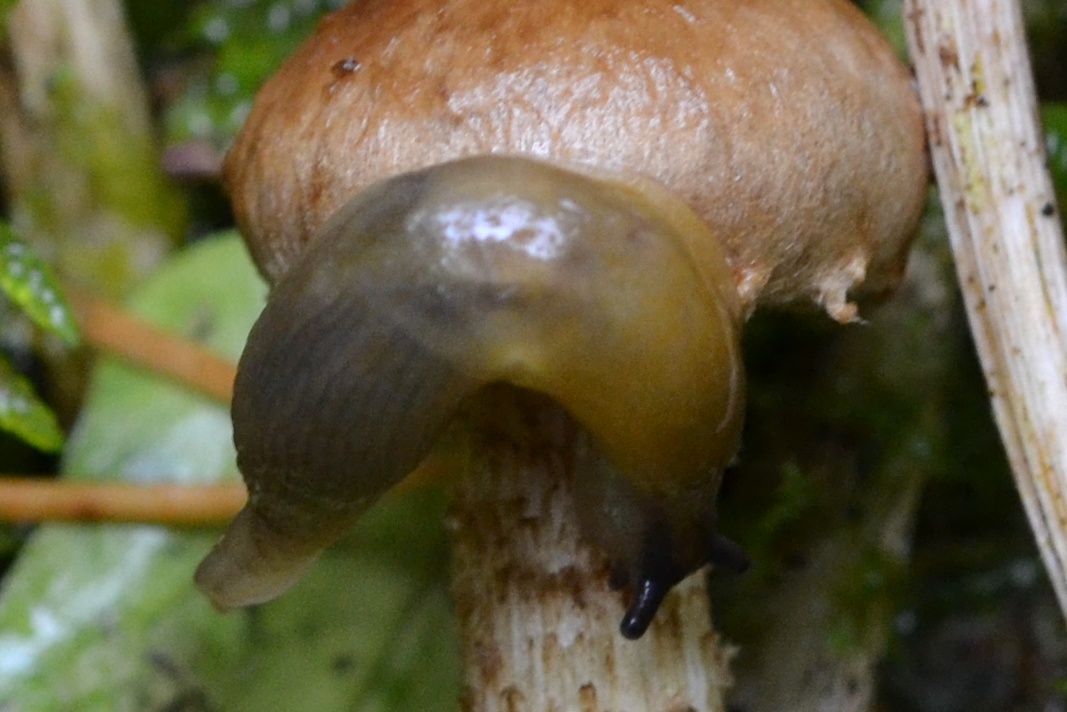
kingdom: Animalia
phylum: Mollusca
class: Gastropoda
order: Stylommatophora
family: Limacidae
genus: Malacolimax
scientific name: Malacolimax tenellus
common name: Lemon slug
